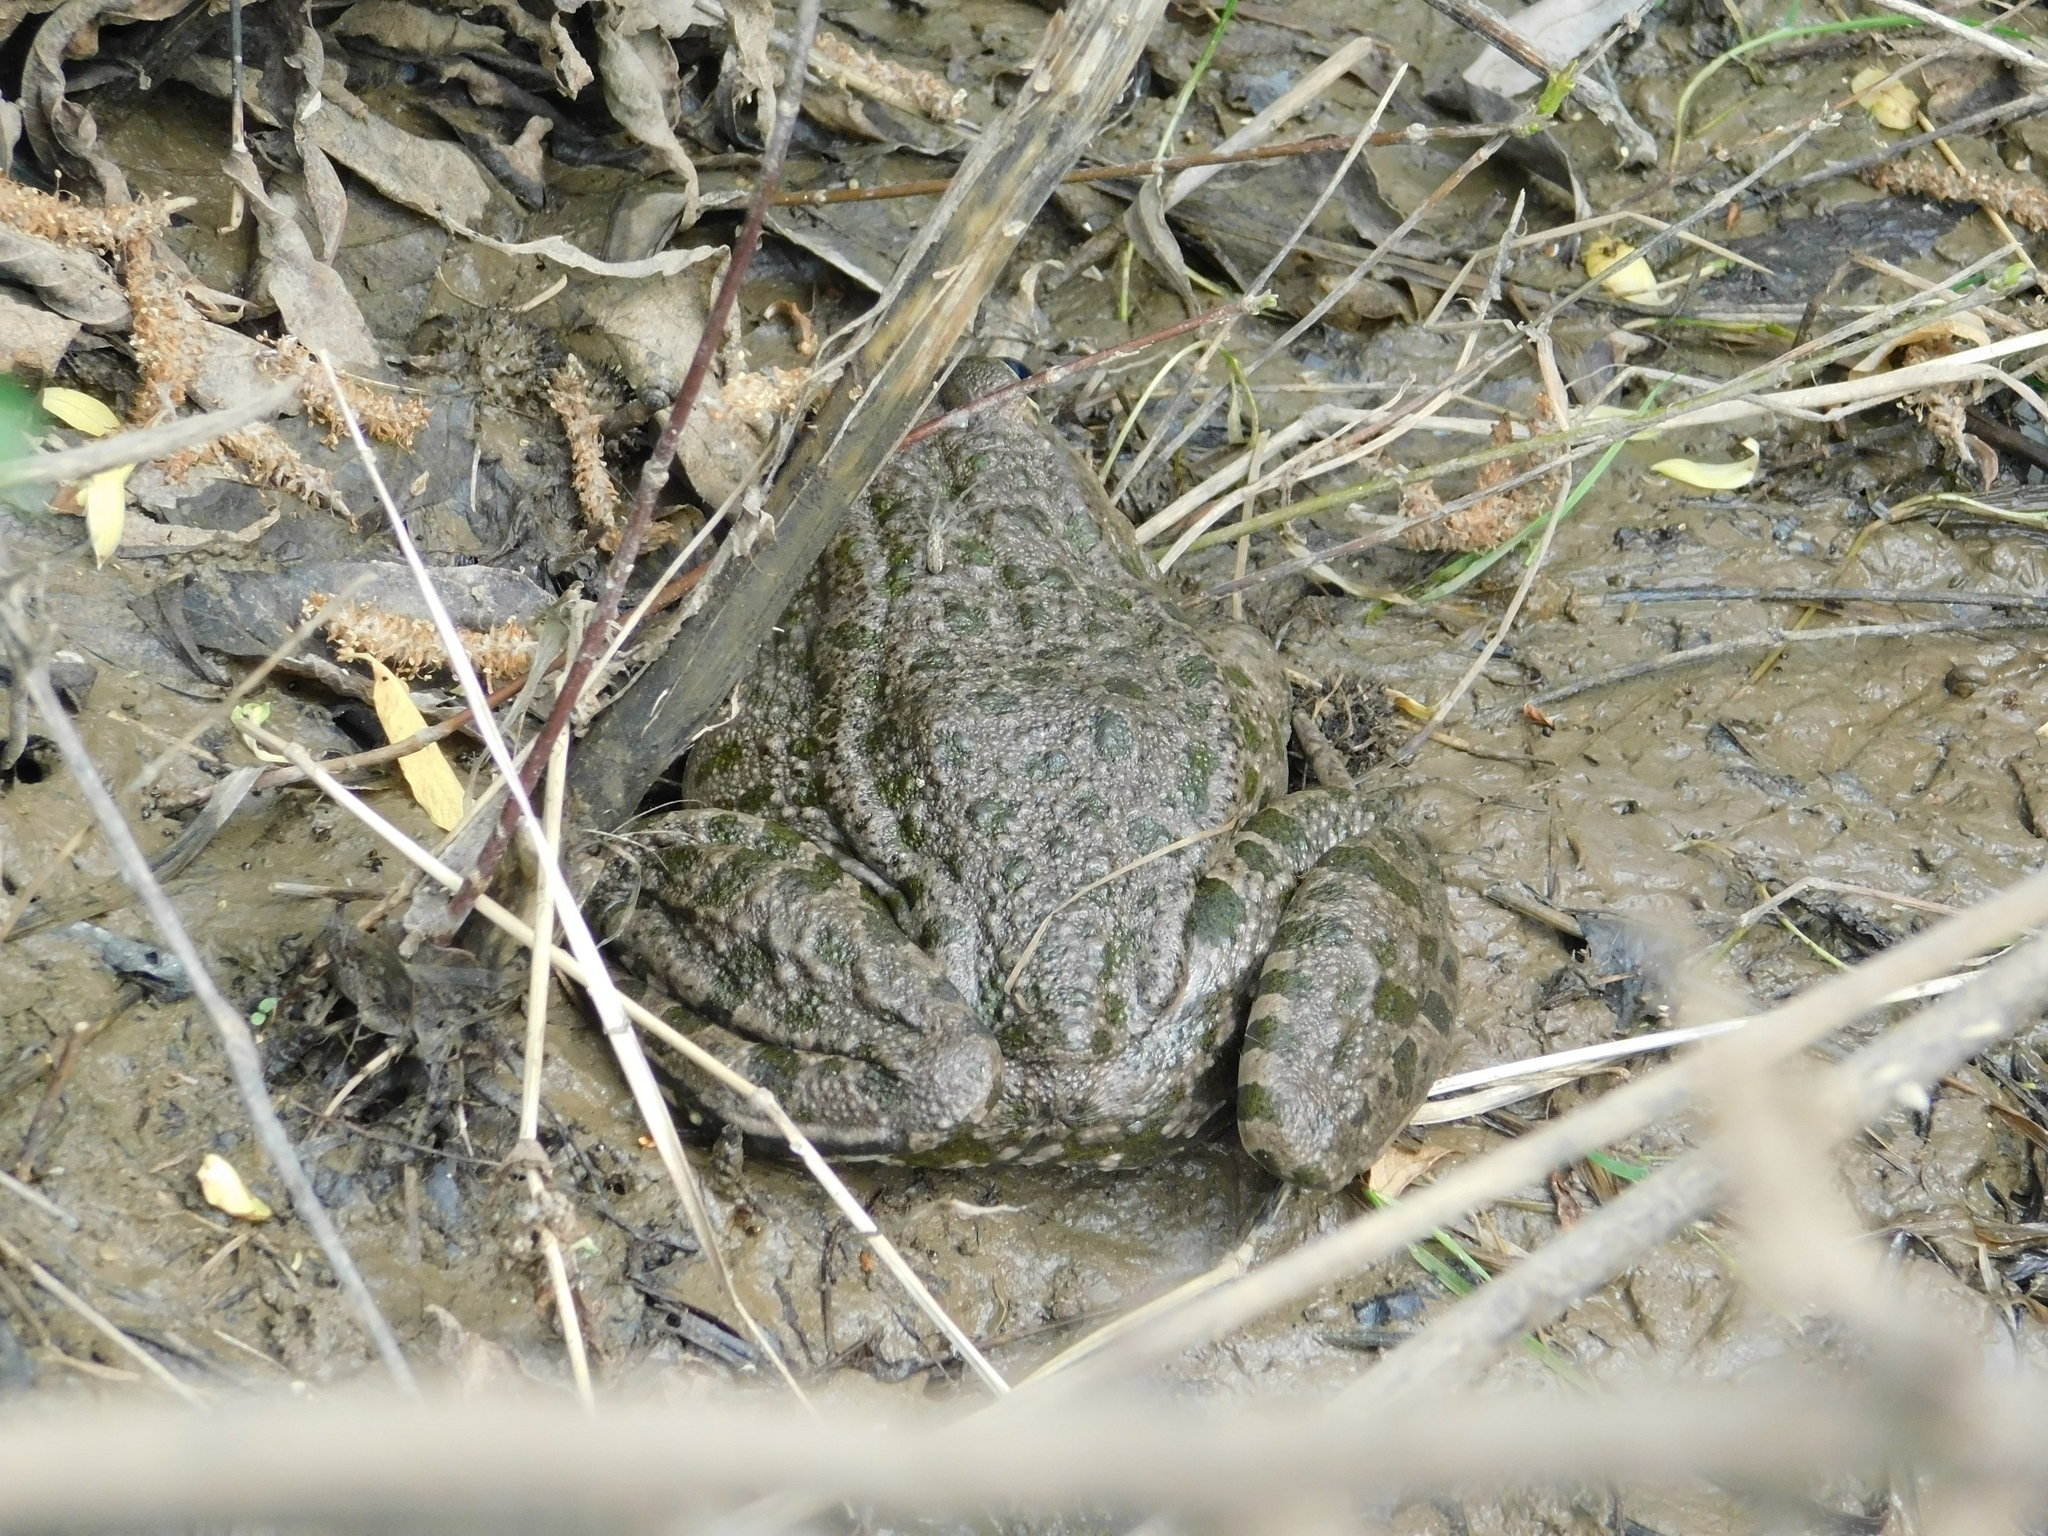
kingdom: Animalia
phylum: Chordata
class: Amphibia
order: Anura
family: Ranidae
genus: Pelophylax
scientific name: Pelophylax ridibundus
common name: Marsh frog
